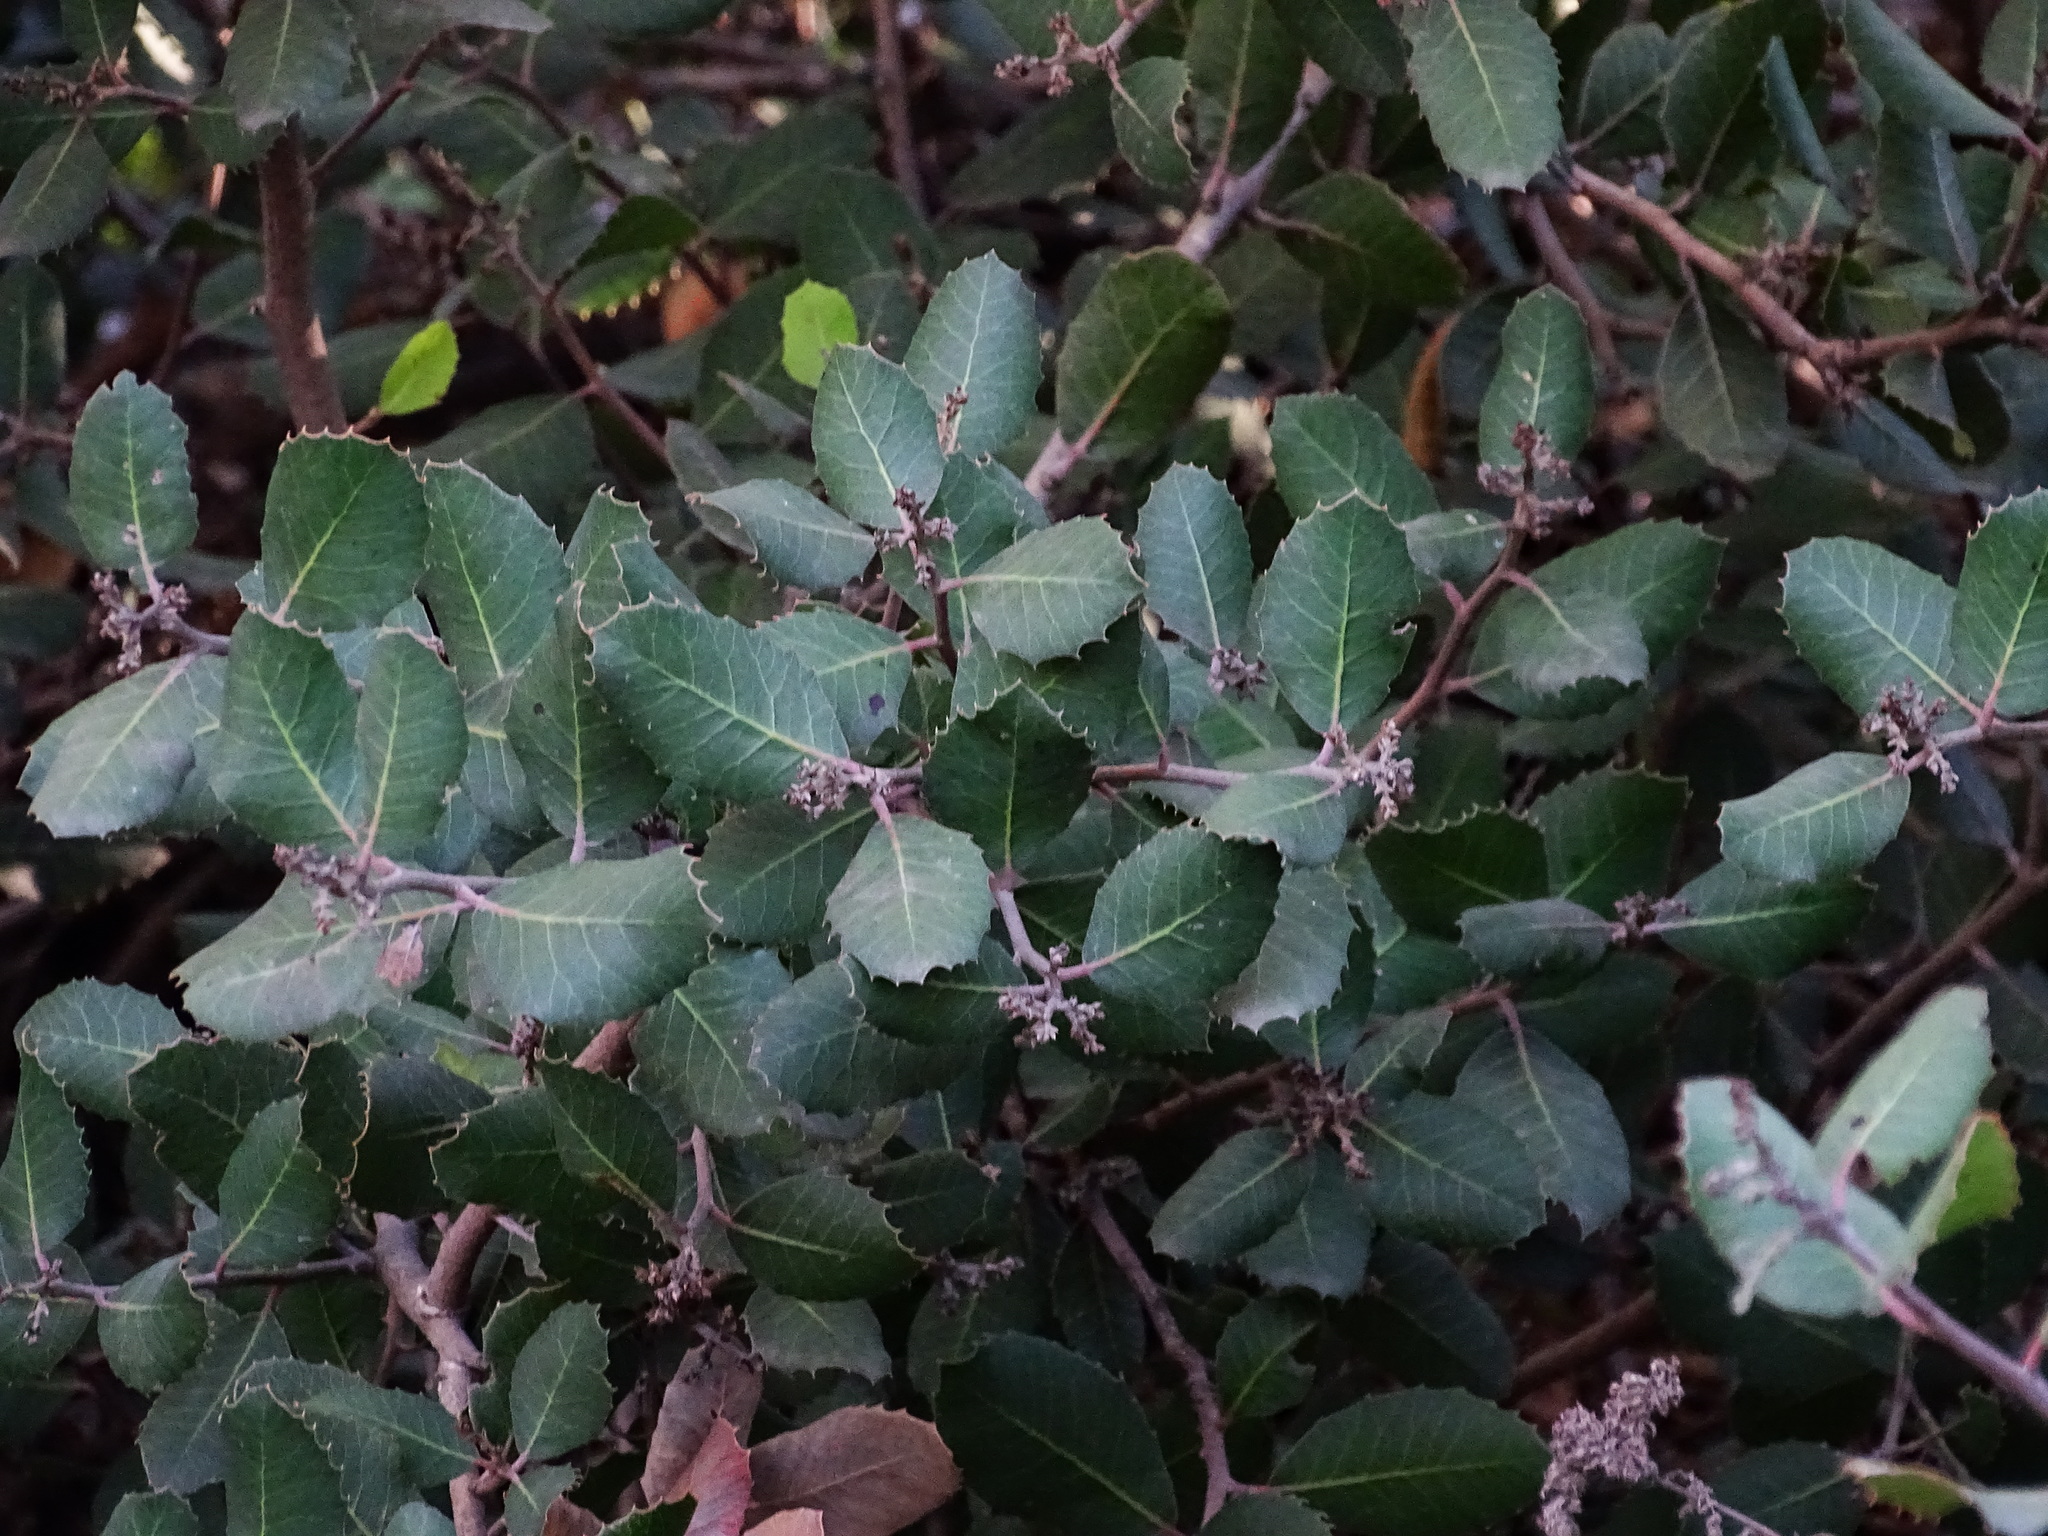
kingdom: Plantae
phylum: Tracheophyta
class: Magnoliopsida
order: Sapindales
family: Anacardiaceae
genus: Rhus
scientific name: Rhus integrifolia
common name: Lemonade sumac
